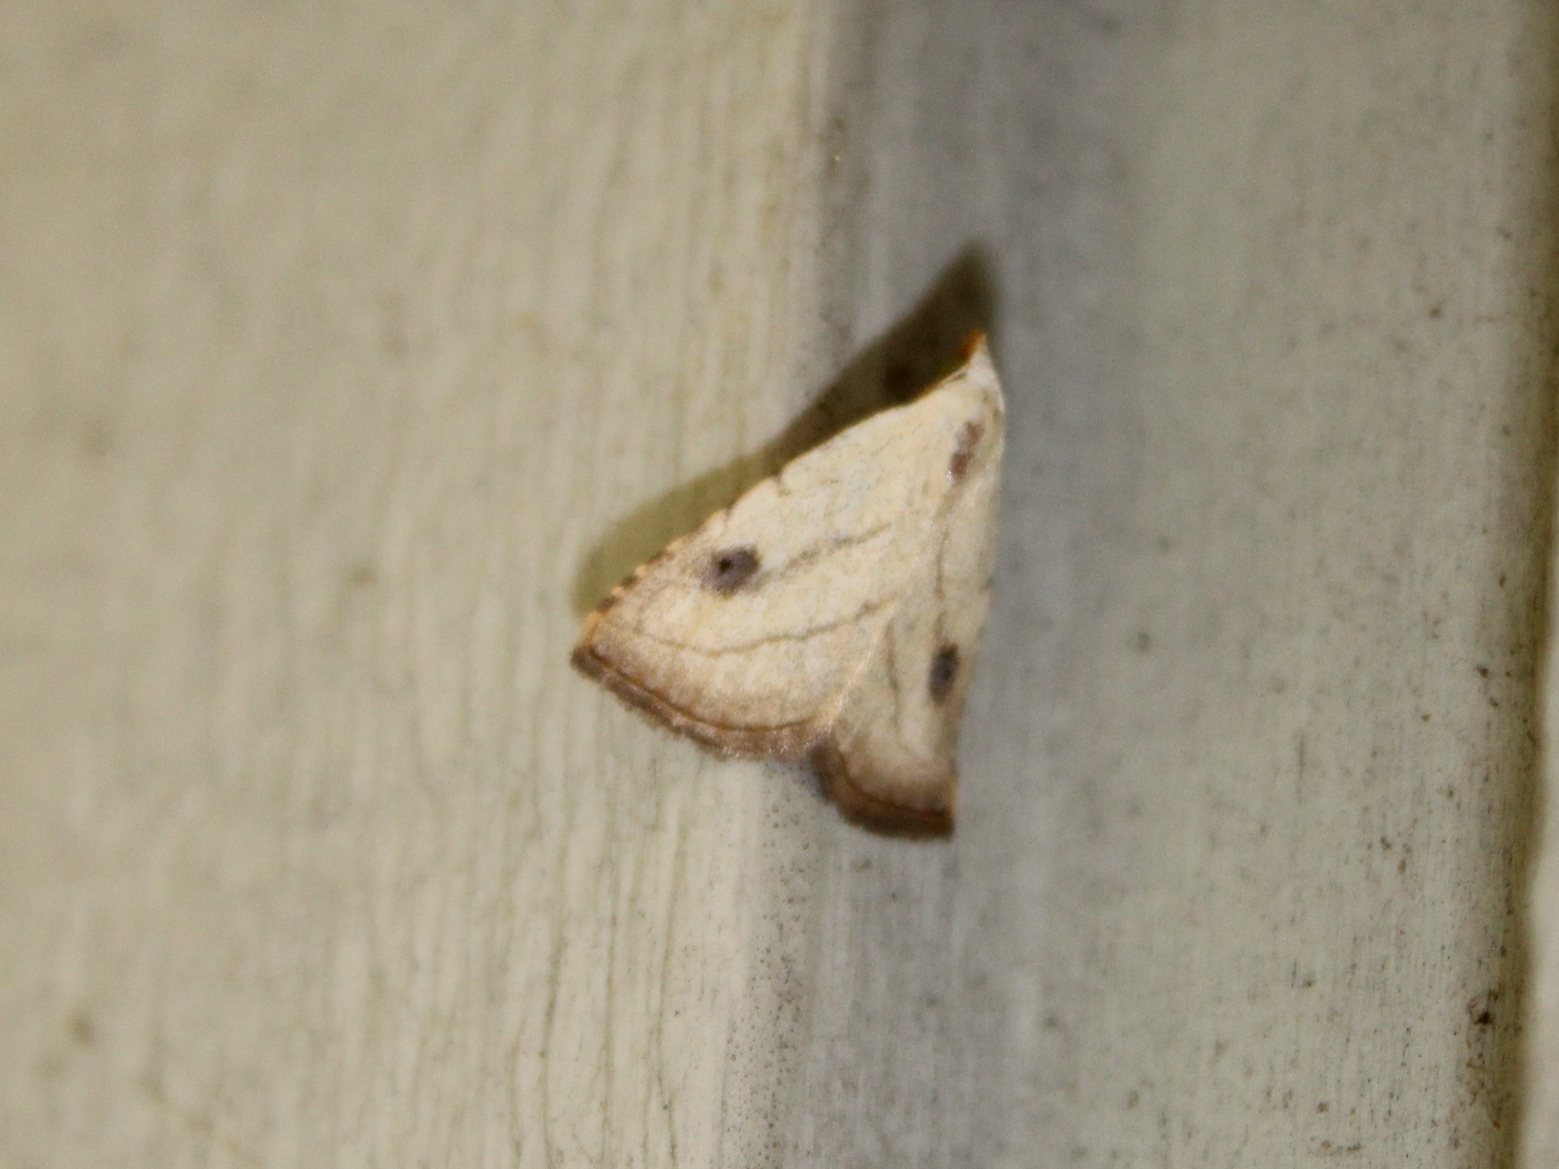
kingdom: Animalia
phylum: Arthropoda
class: Insecta
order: Lepidoptera
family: Erebidae
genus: Rivula
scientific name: Rivula propinqualis
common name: Spotted grass moth
